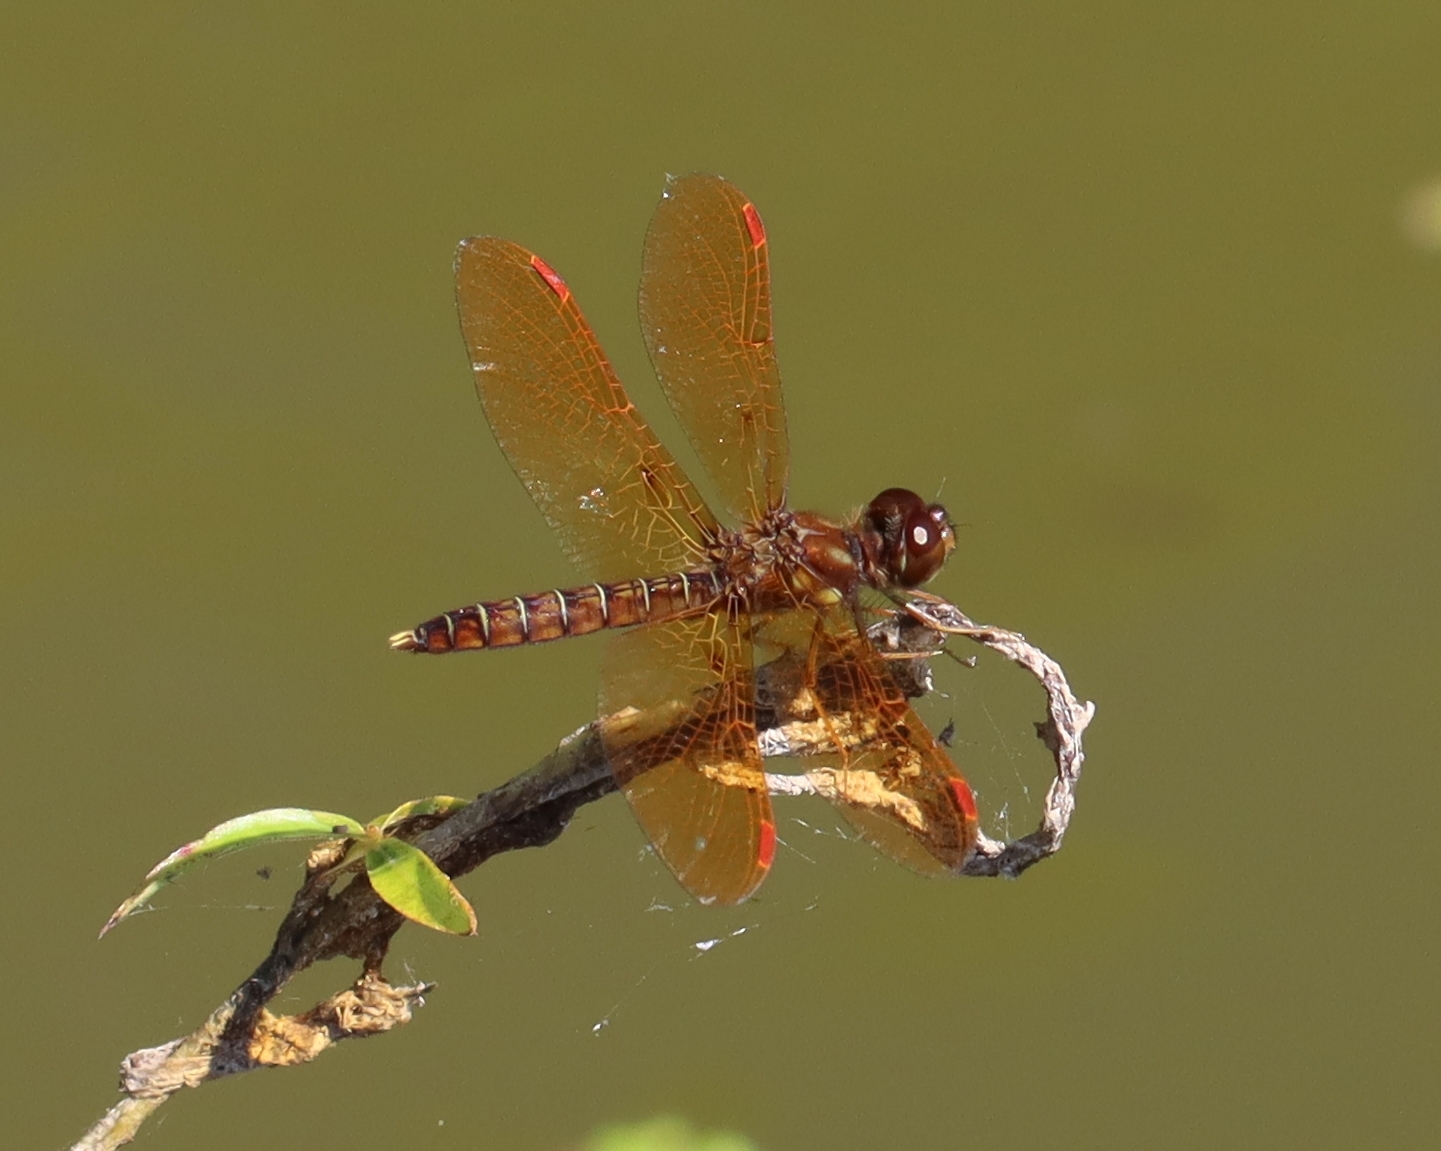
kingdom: Animalia
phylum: Arthropoda
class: Insecta
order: Odonata
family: Libellulidae
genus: Perithemis
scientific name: Perithemis tenera
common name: Eastern amberwing
